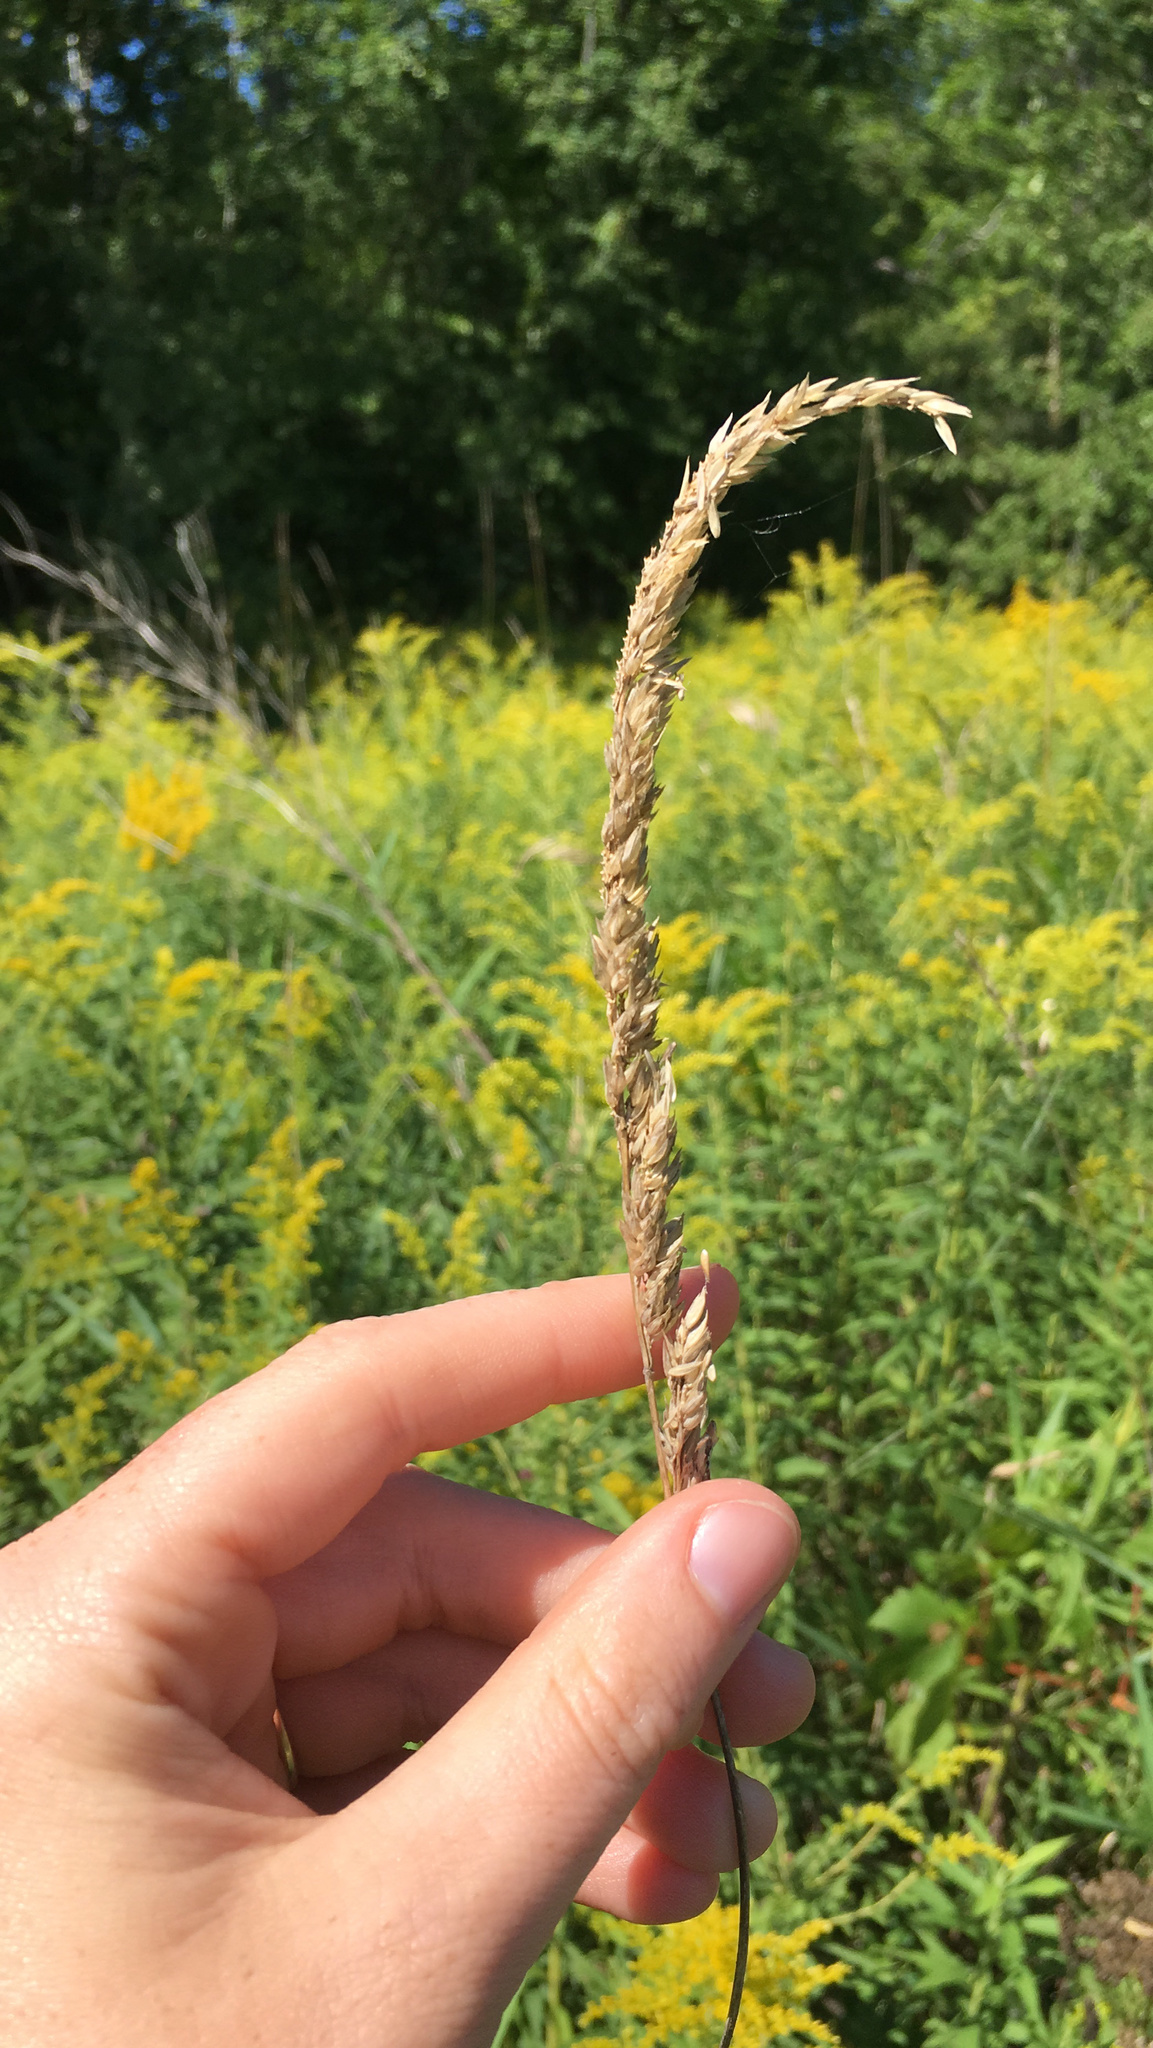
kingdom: Plantae
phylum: Tracheophyta
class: Liliopsida
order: Poales
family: Poaceae
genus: Phalaris
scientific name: Phalaris arundinacea
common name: Reed canary-grass
